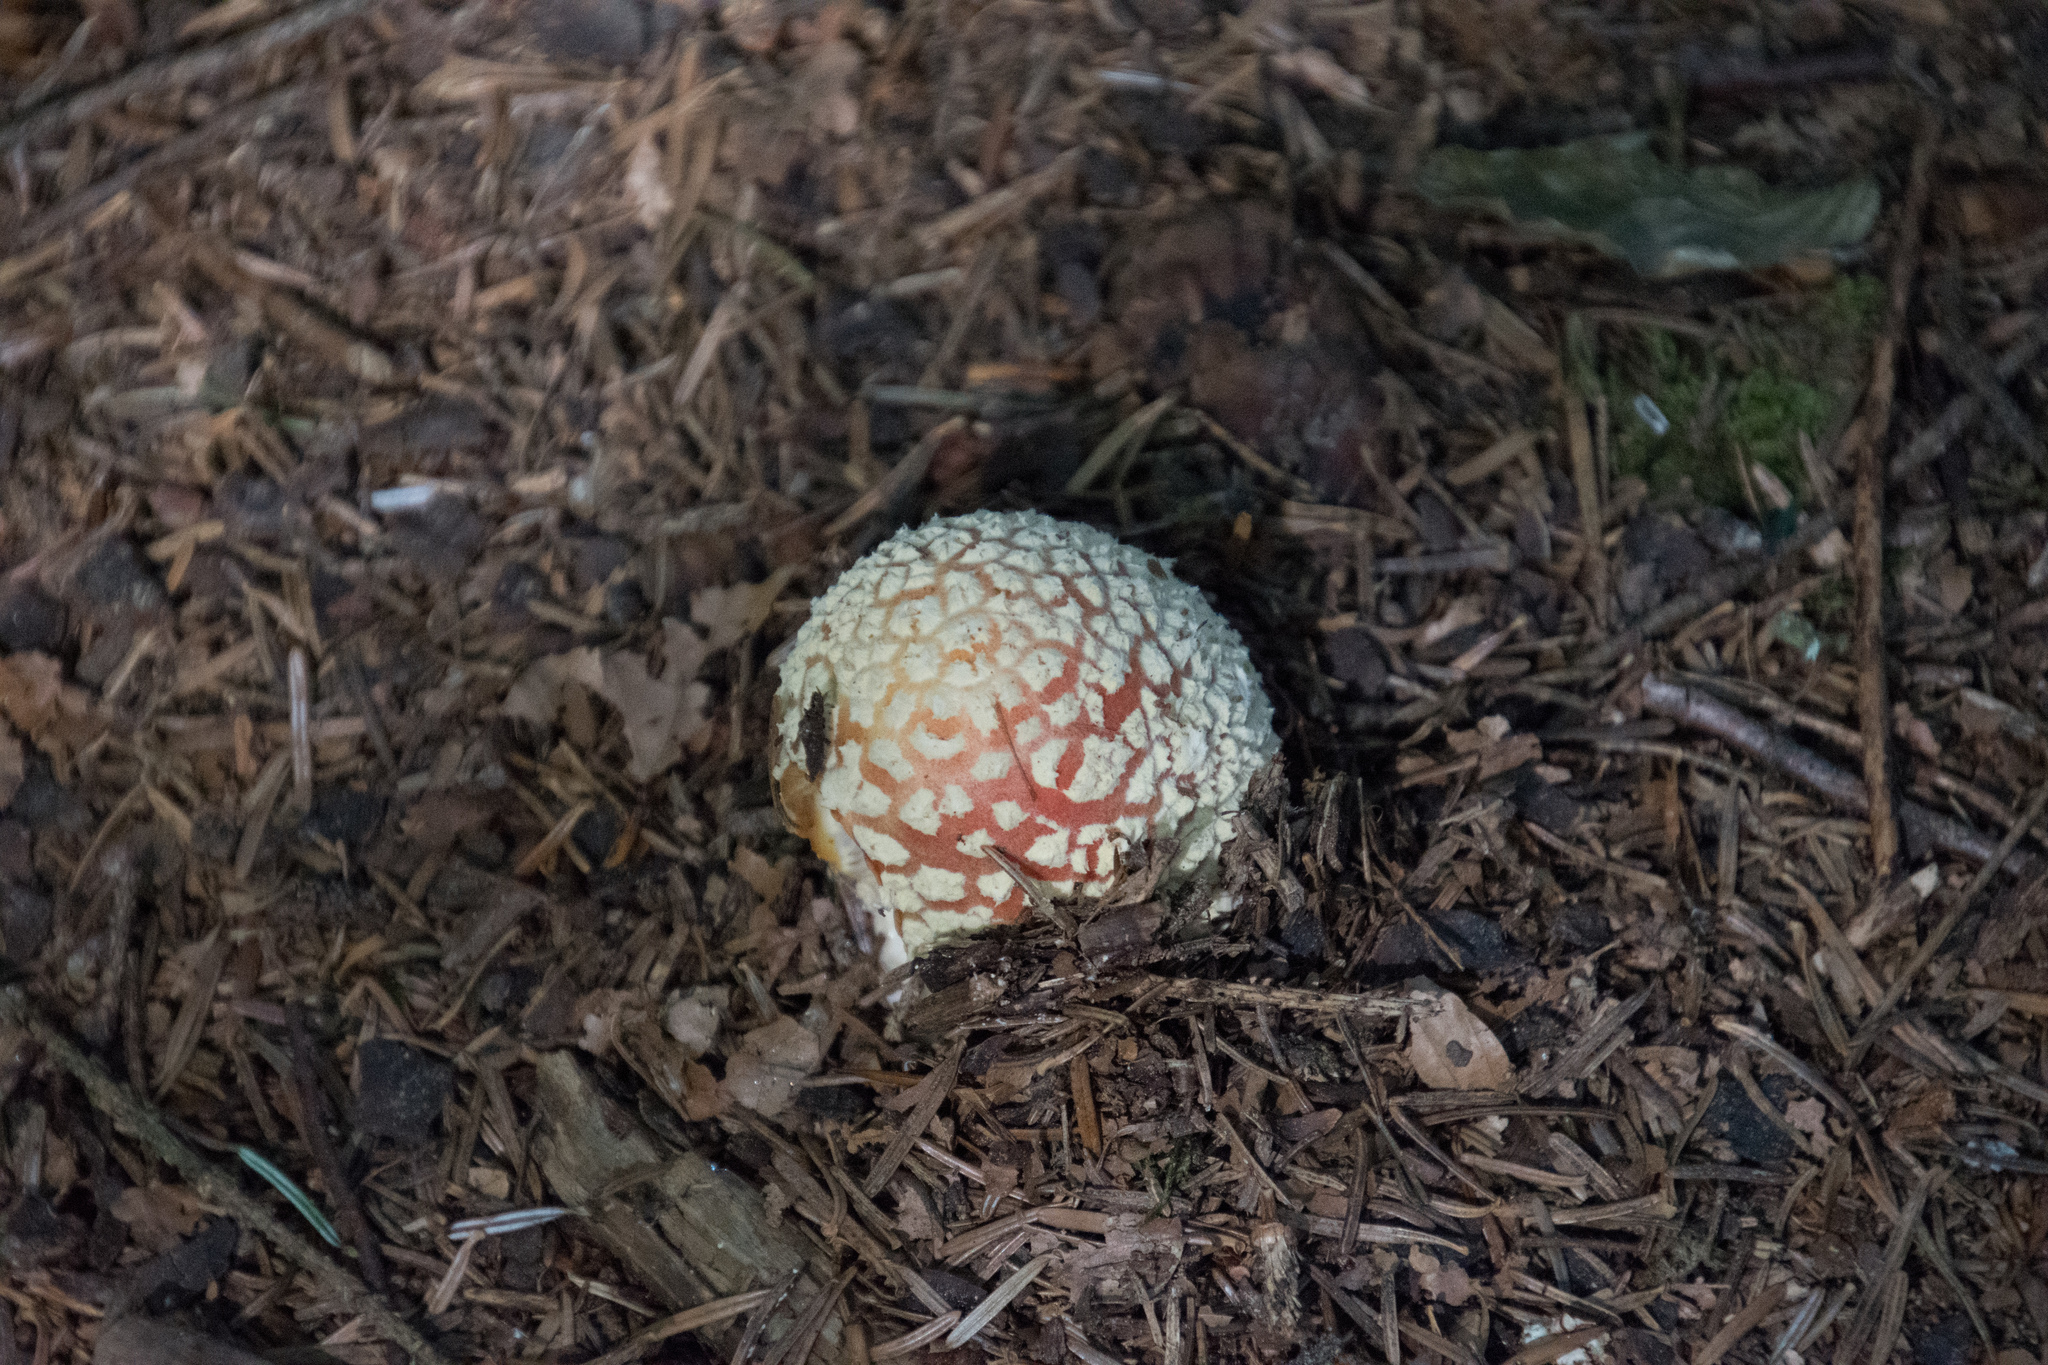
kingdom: Fungi
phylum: Basidiomycota
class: Agaricomycetes
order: Agaricales
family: Amanitaceae
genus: Amanita
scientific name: Amanita muscaria
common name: Fly agaric
